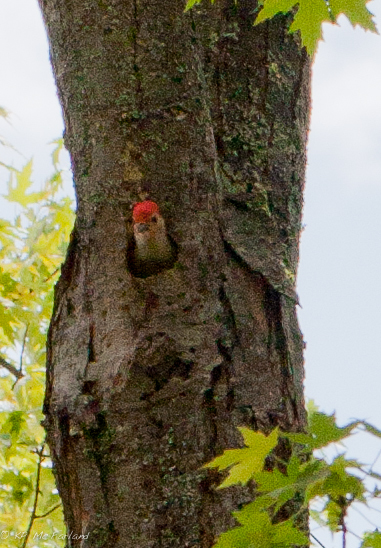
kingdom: Animalia
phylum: Chordata
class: Aves
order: Piciformes
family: Picidae
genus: Melanerpes
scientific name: Melanerpes carolinus
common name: Red-bellied woodpecker
